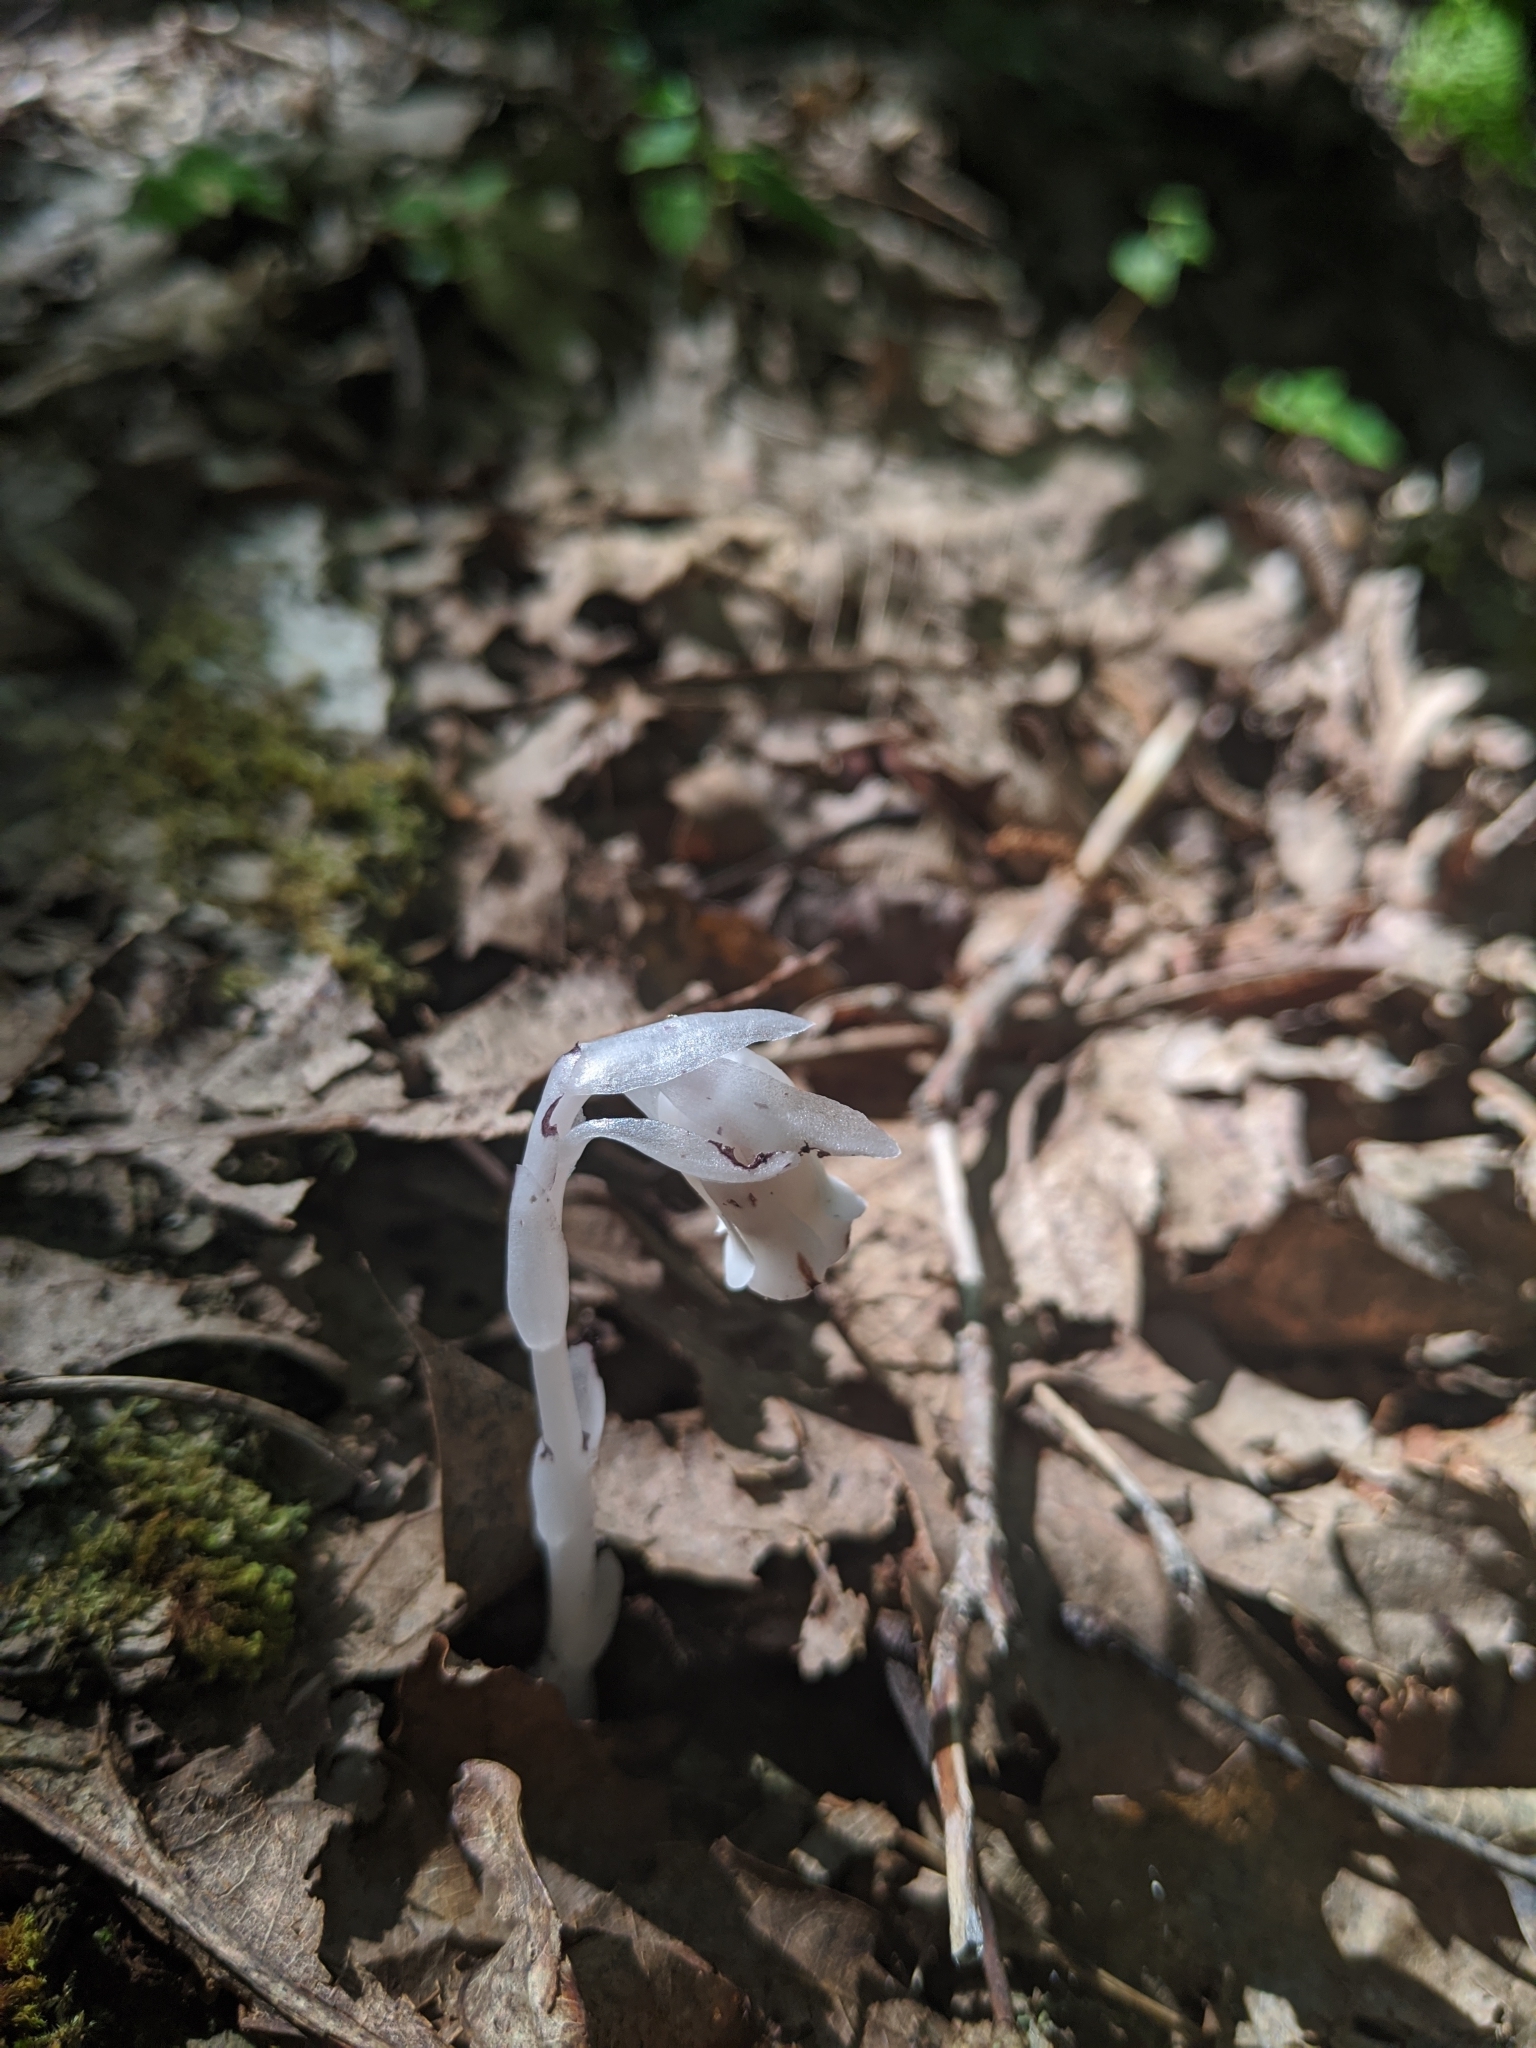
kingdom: Plantae
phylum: Tracheophyta
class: Magnoliopsida
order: Ericales
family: Ericaceae
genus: Monotropa
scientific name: Monotropa uniflora
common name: Convulsion root
